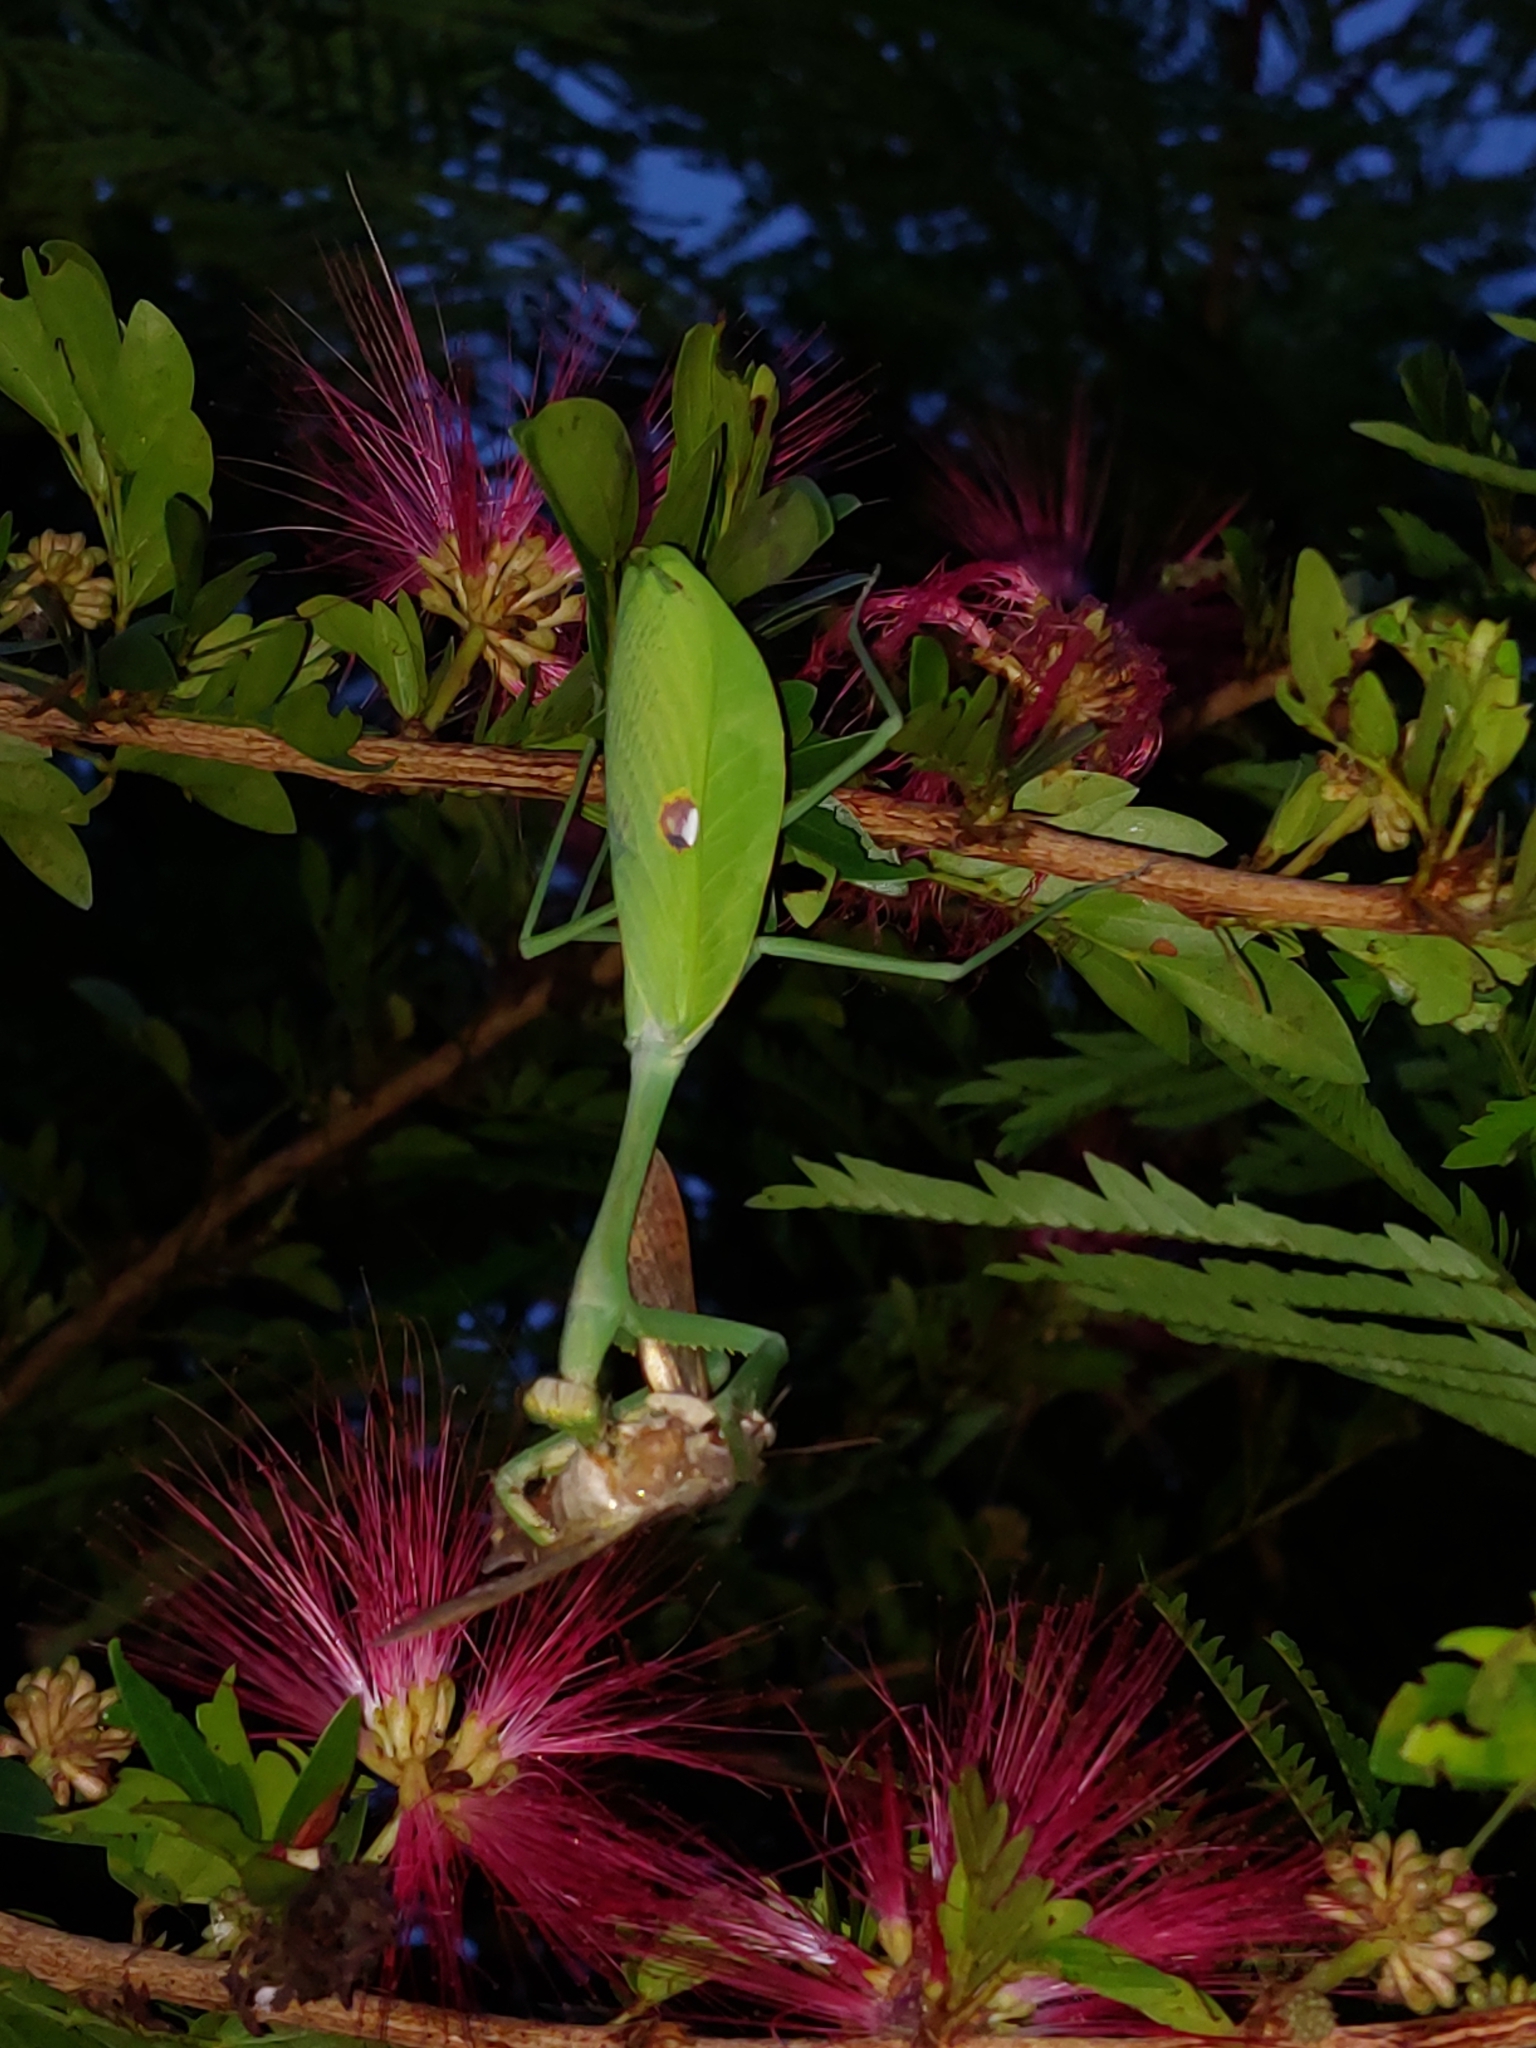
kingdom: Animalia
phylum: Arthropoda
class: Insecta
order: Mantodea
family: Mantidae
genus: Stagmatoptera
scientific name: Stagmatoptera septentrionalis
